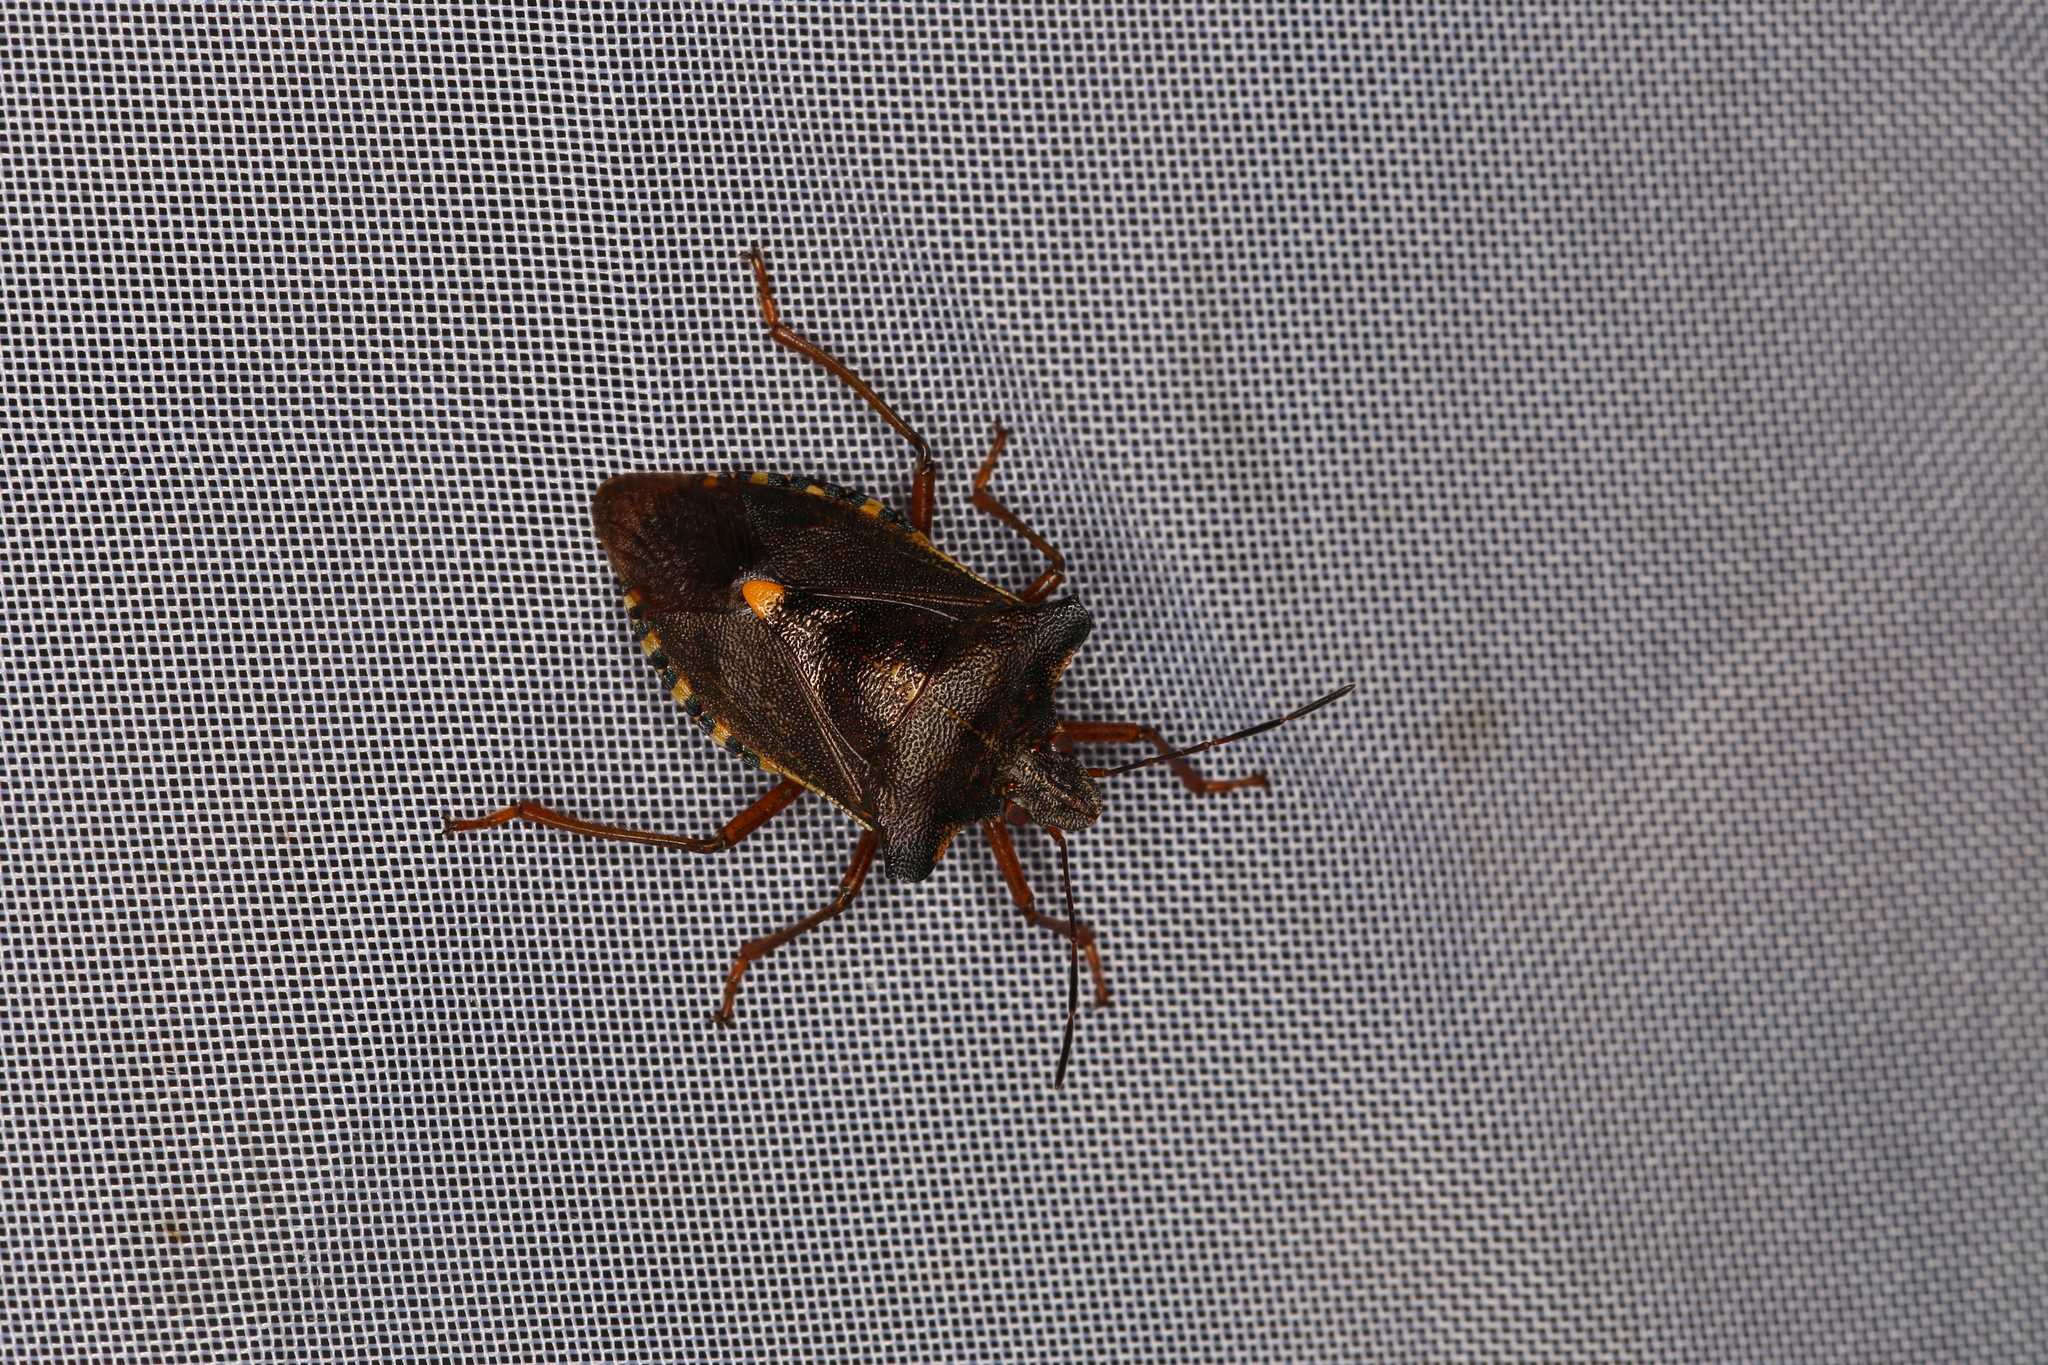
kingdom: Animalia
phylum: Arthropoda
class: Insecta
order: Hemiptera
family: Pentatomidae
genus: Pentatoma
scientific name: Pentatoma rufipes
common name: Forest bug
